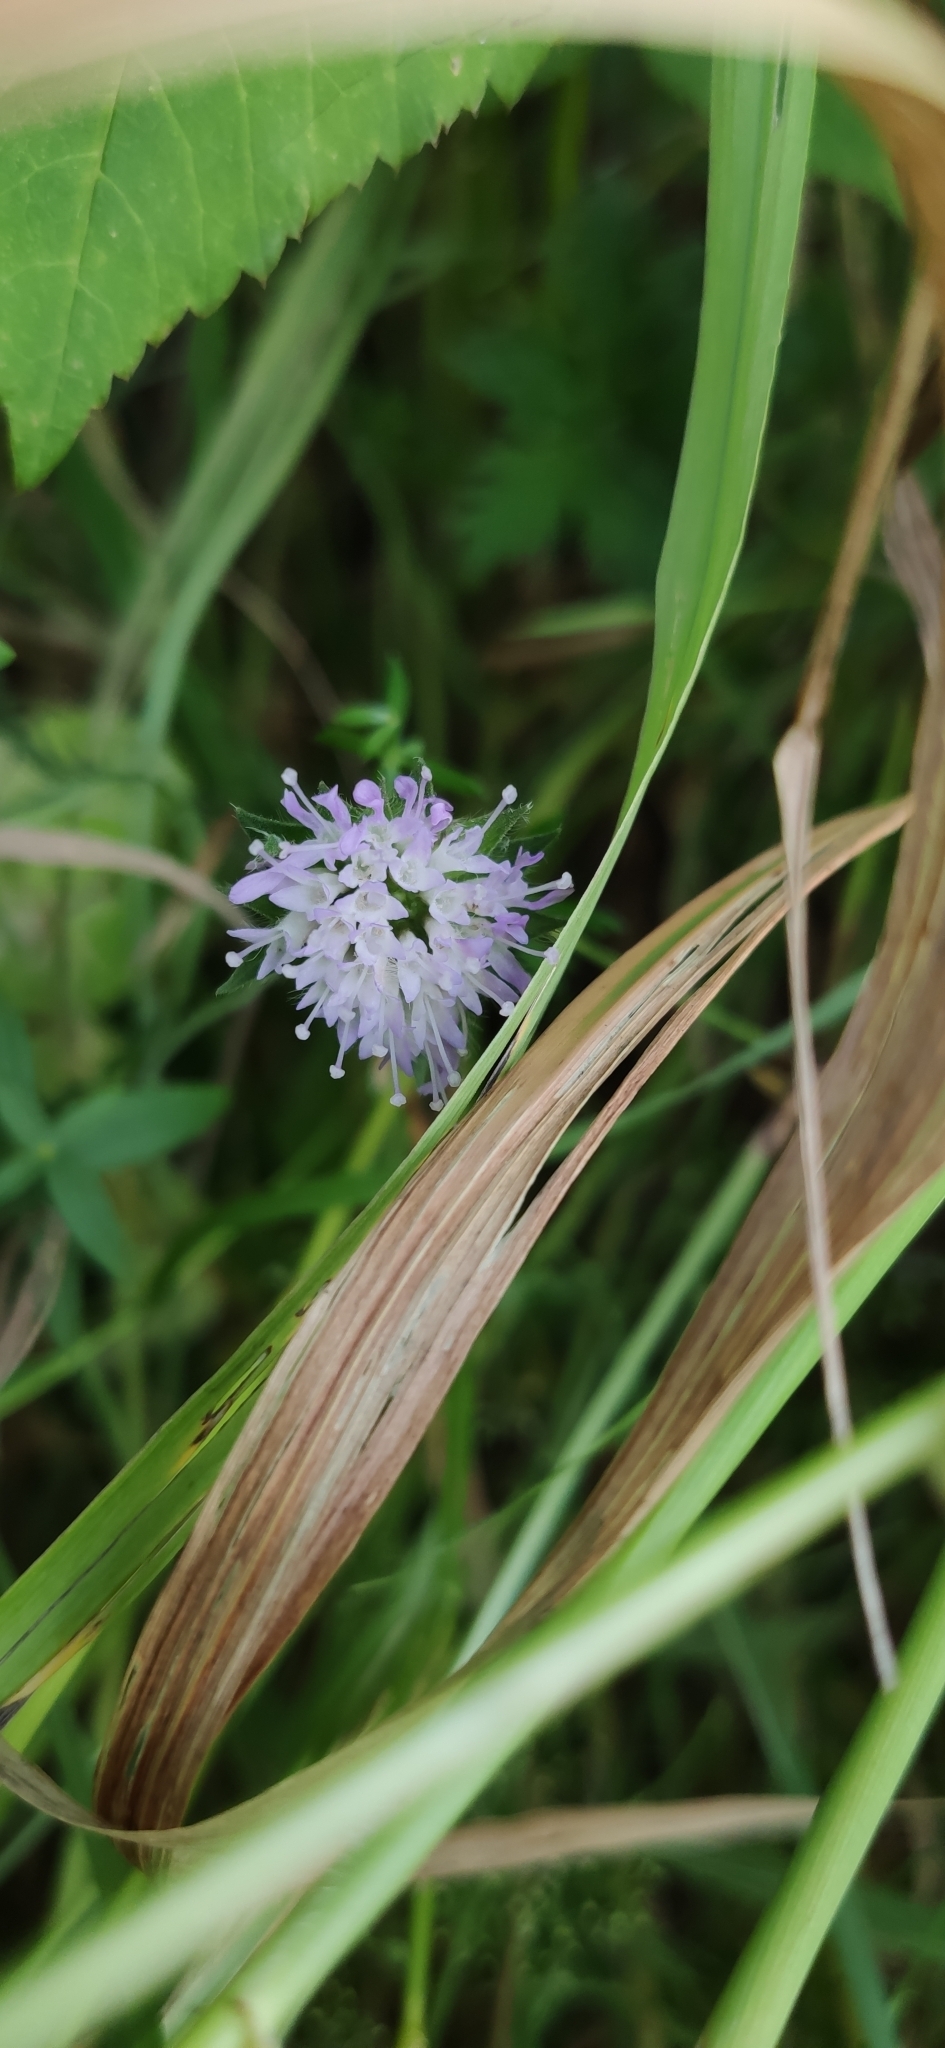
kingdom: Plantae
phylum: Tracheophyta
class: Magnoliopsida
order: Dipsacales
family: Caprifoliaceae
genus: Knautia
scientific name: Knautia arvensis
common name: Field scabiosa
